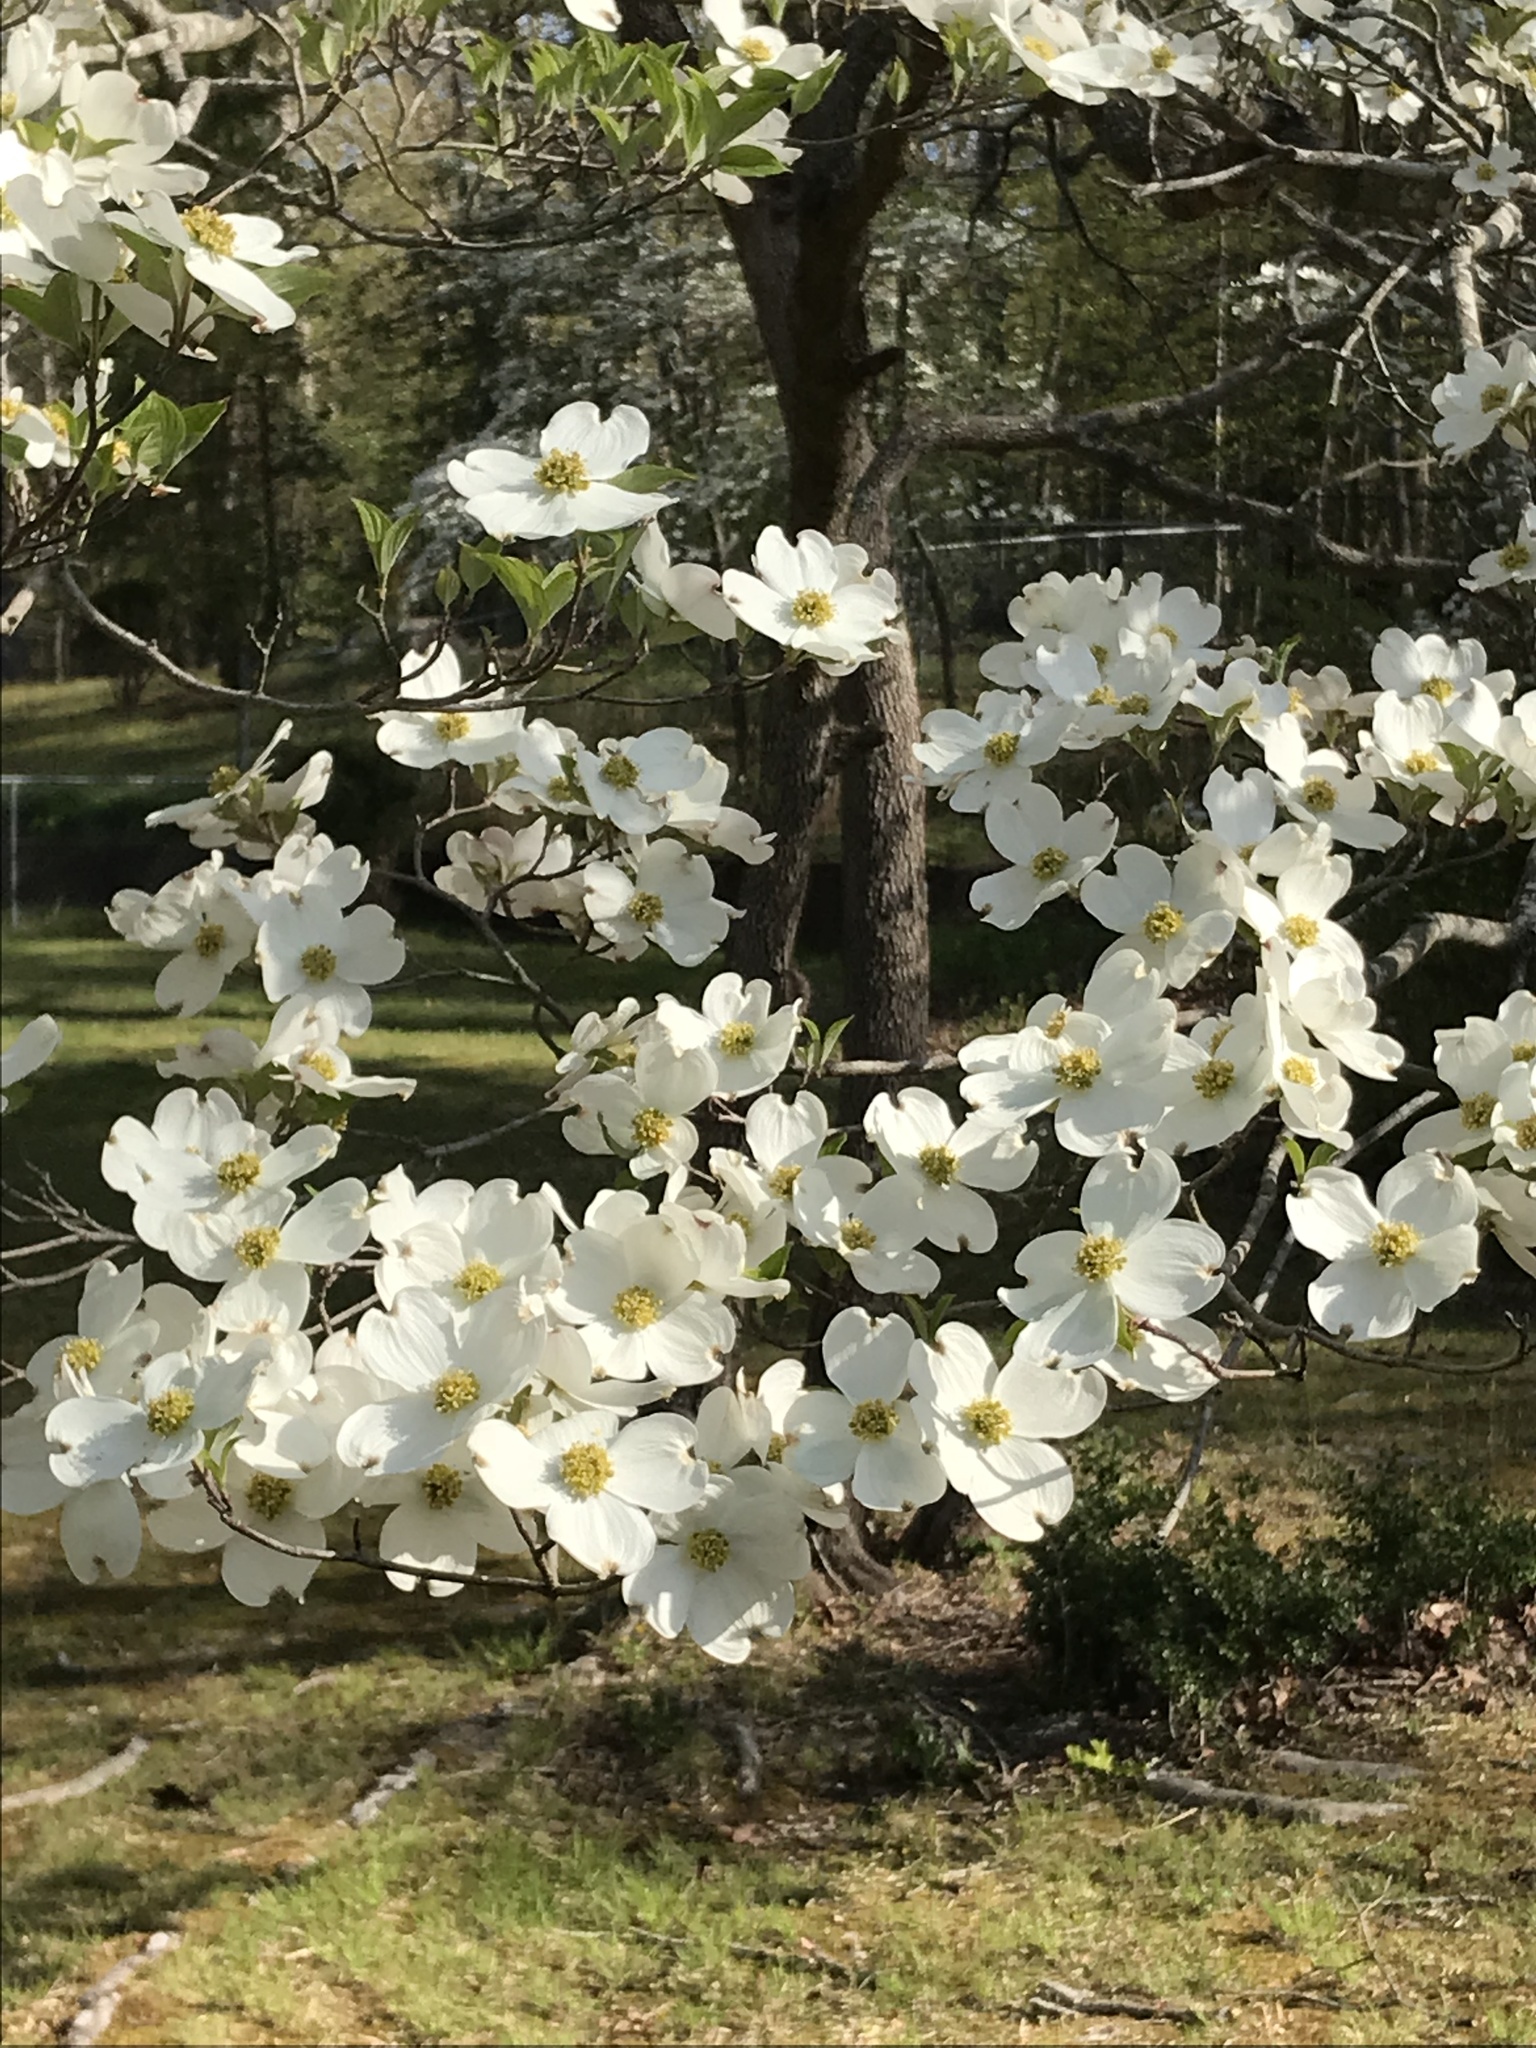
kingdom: Plantae
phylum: Tracheophyta
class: Magnoliopsida
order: Cornales
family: Cornaceae
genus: Cornus
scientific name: Cornus florida
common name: Flowering dogwood
